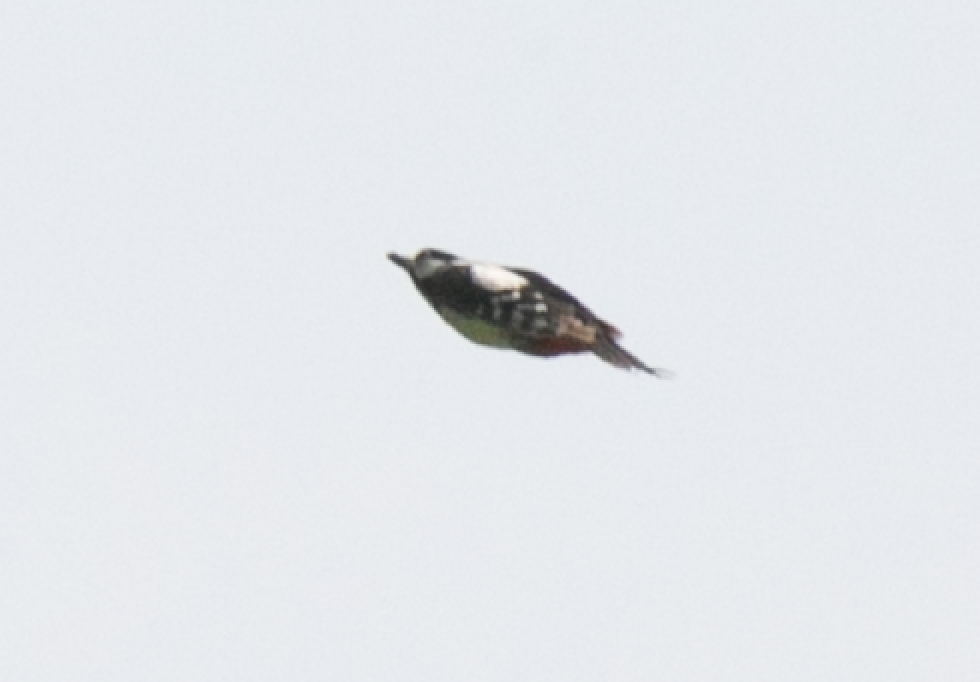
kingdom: Animalia
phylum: Chordata
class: Aves
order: Piciformes
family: Picidae
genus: Dendrocopos
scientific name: Dendrocopos major
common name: Great spotted woodpecker
